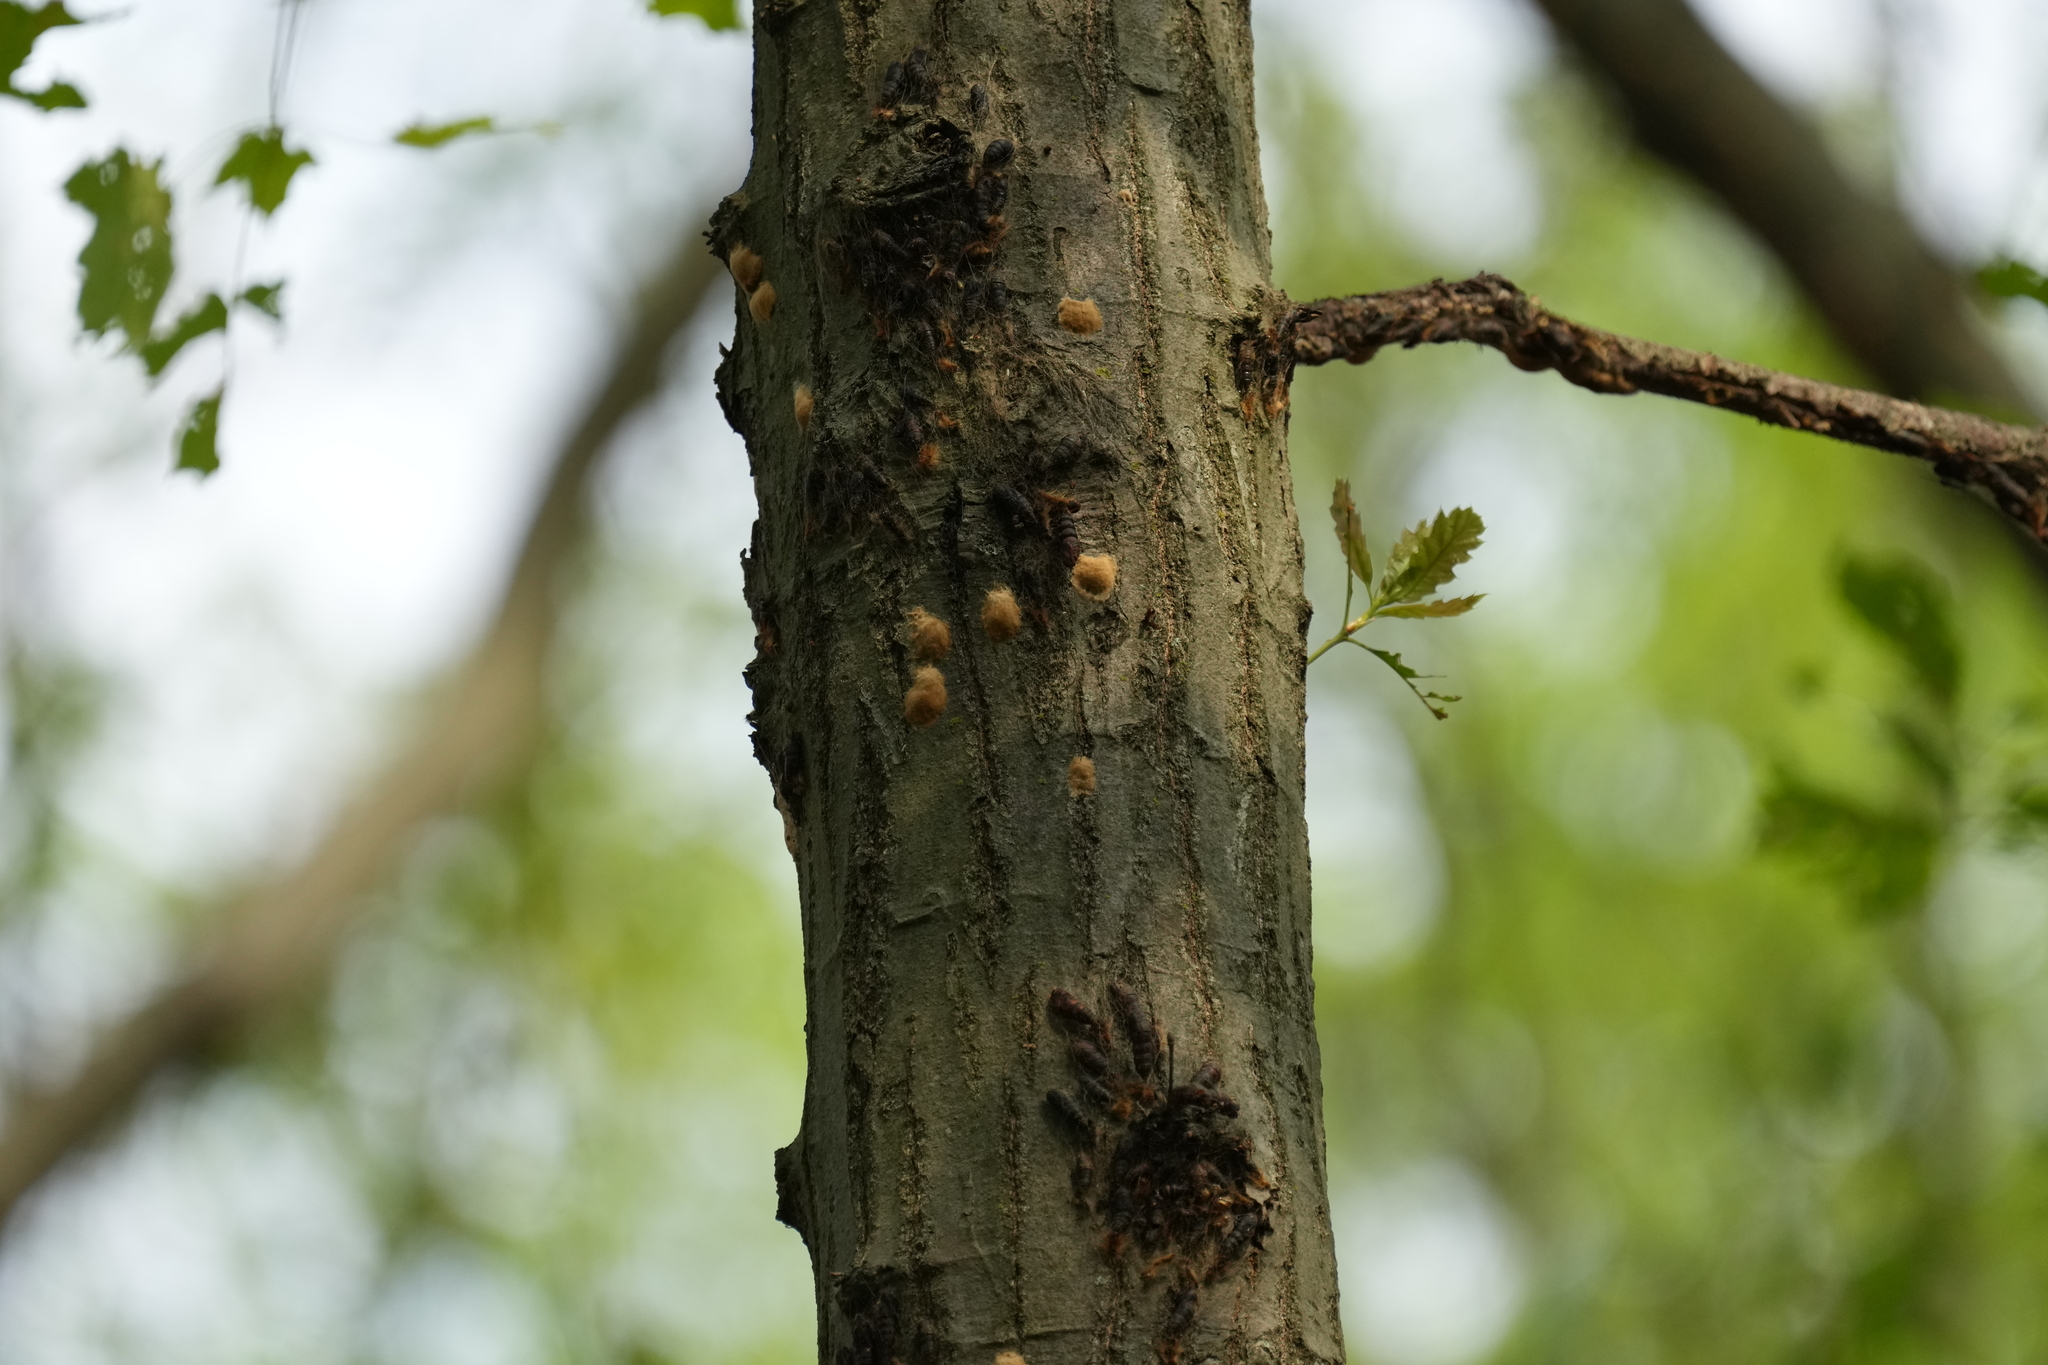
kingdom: Animalia
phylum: Arthropoda
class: Insecta
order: Lepidoptera
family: Erebidae
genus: Lymantria
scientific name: Lymantria dispar
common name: Gypsy moth
